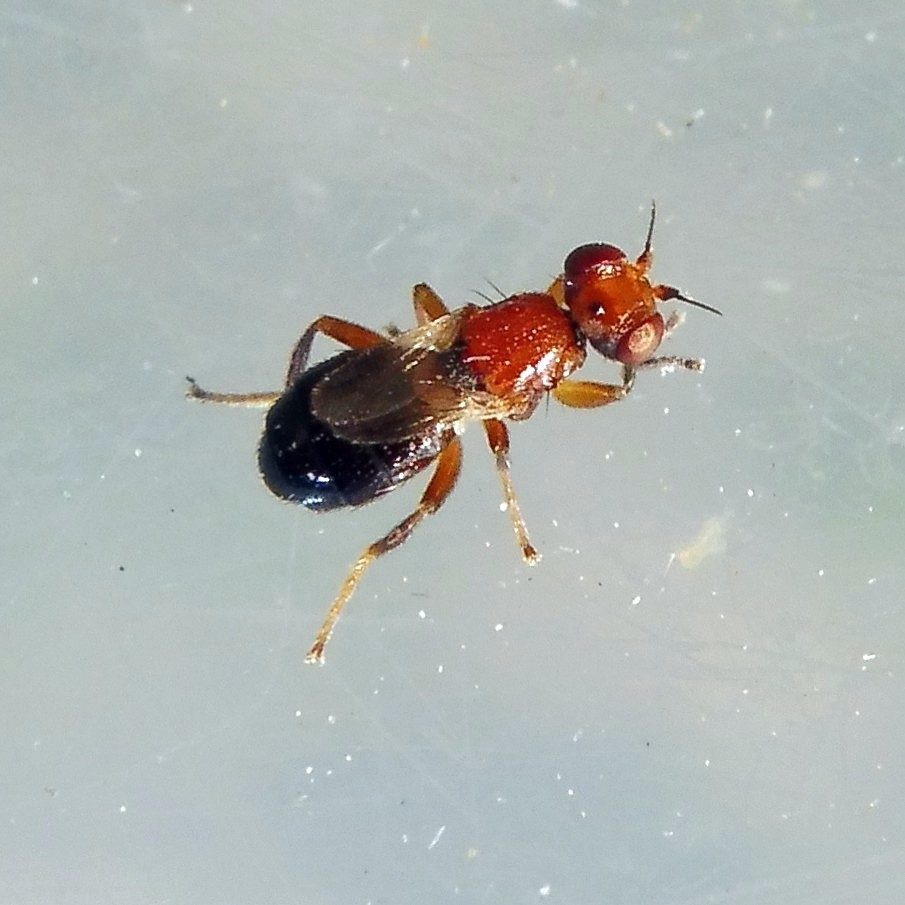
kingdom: Animalia
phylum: Arthropoda
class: Insecta
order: Diptera
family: Chloropidae
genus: Elachiptera
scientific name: Elachiptera brevipennis
